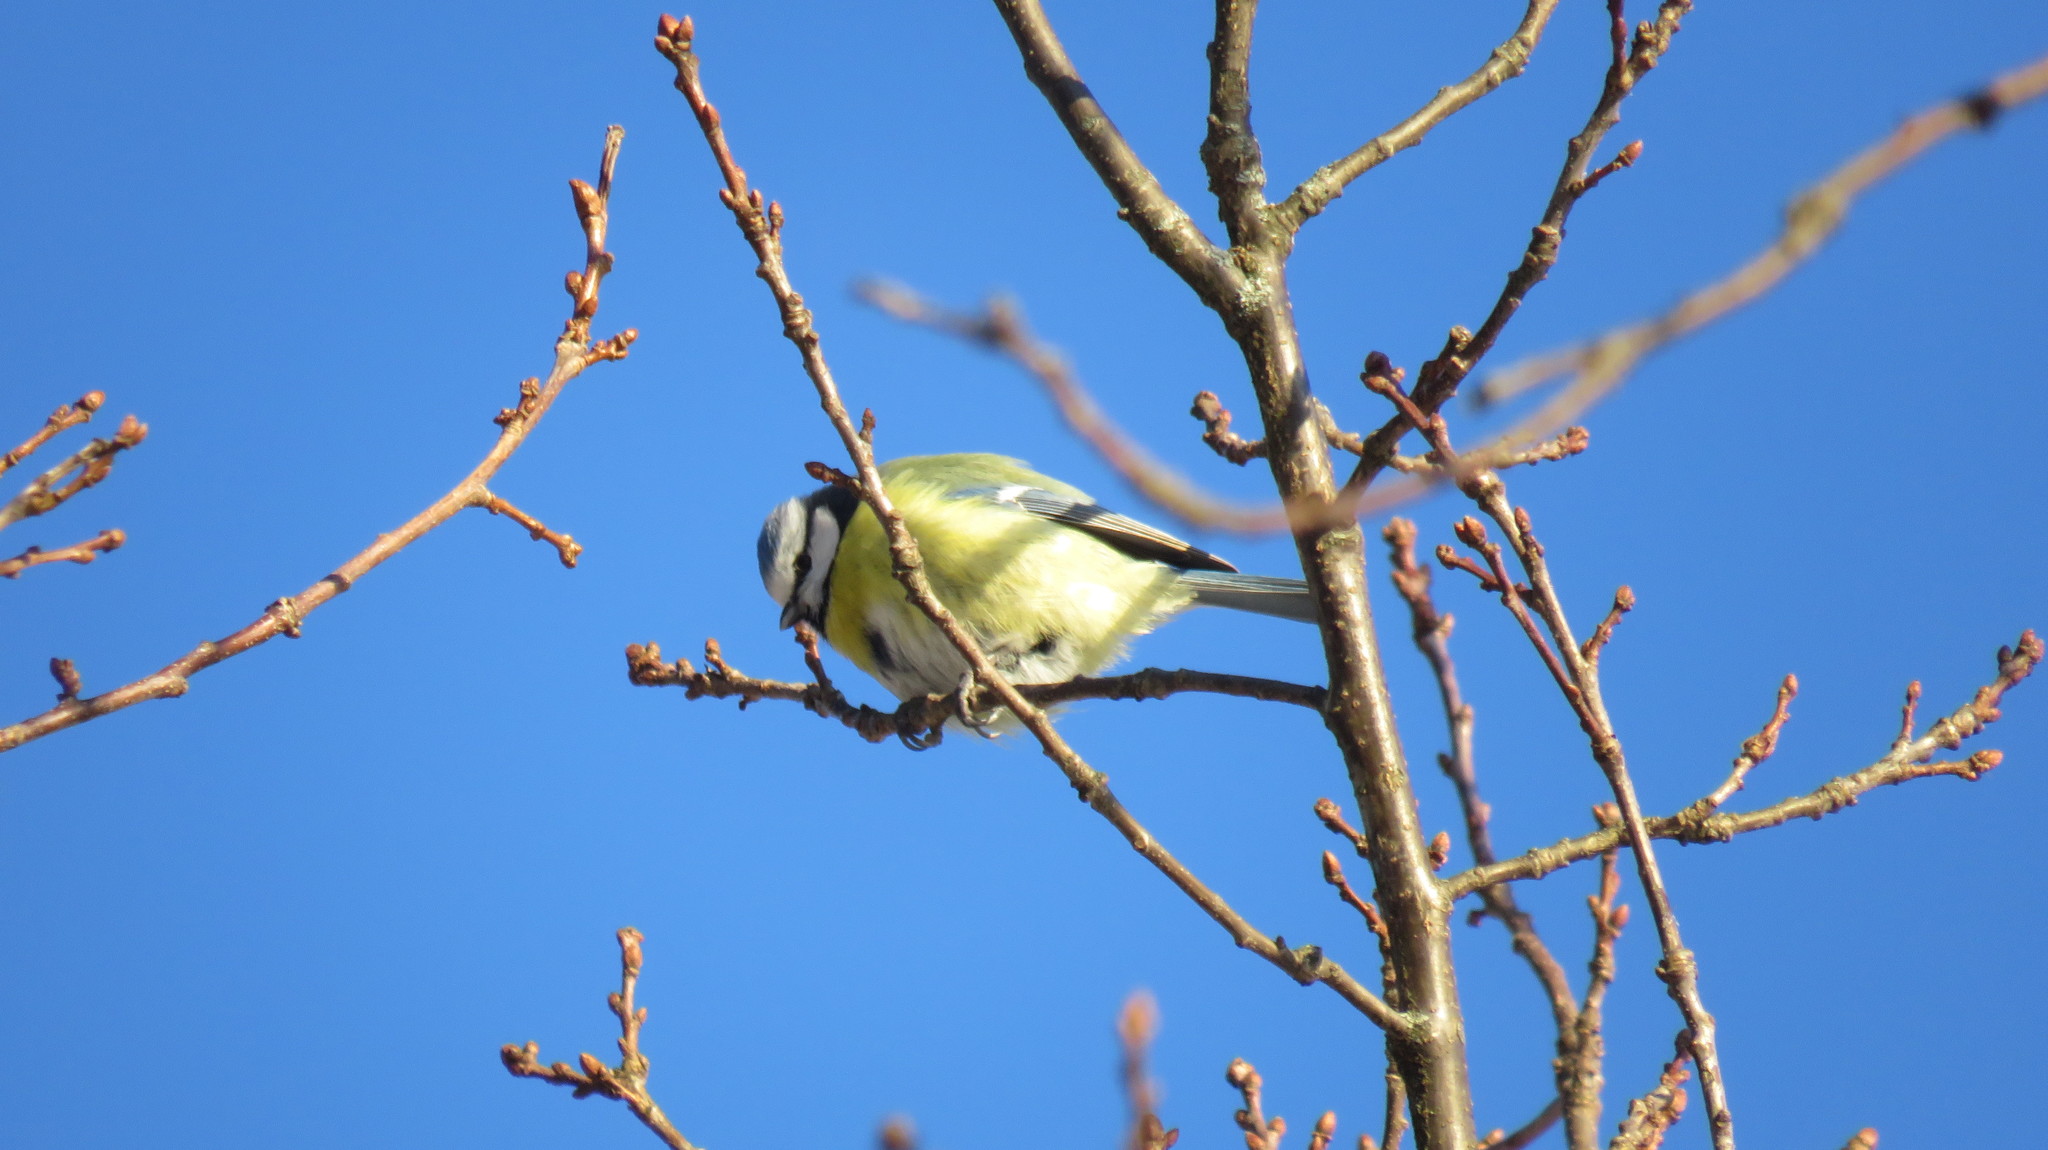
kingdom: Animalia
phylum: Chordata
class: Aves
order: Passeriformes
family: Paridae
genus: Cyanistes
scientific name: Cyanistes caeruleus
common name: Eurasian blue tit
